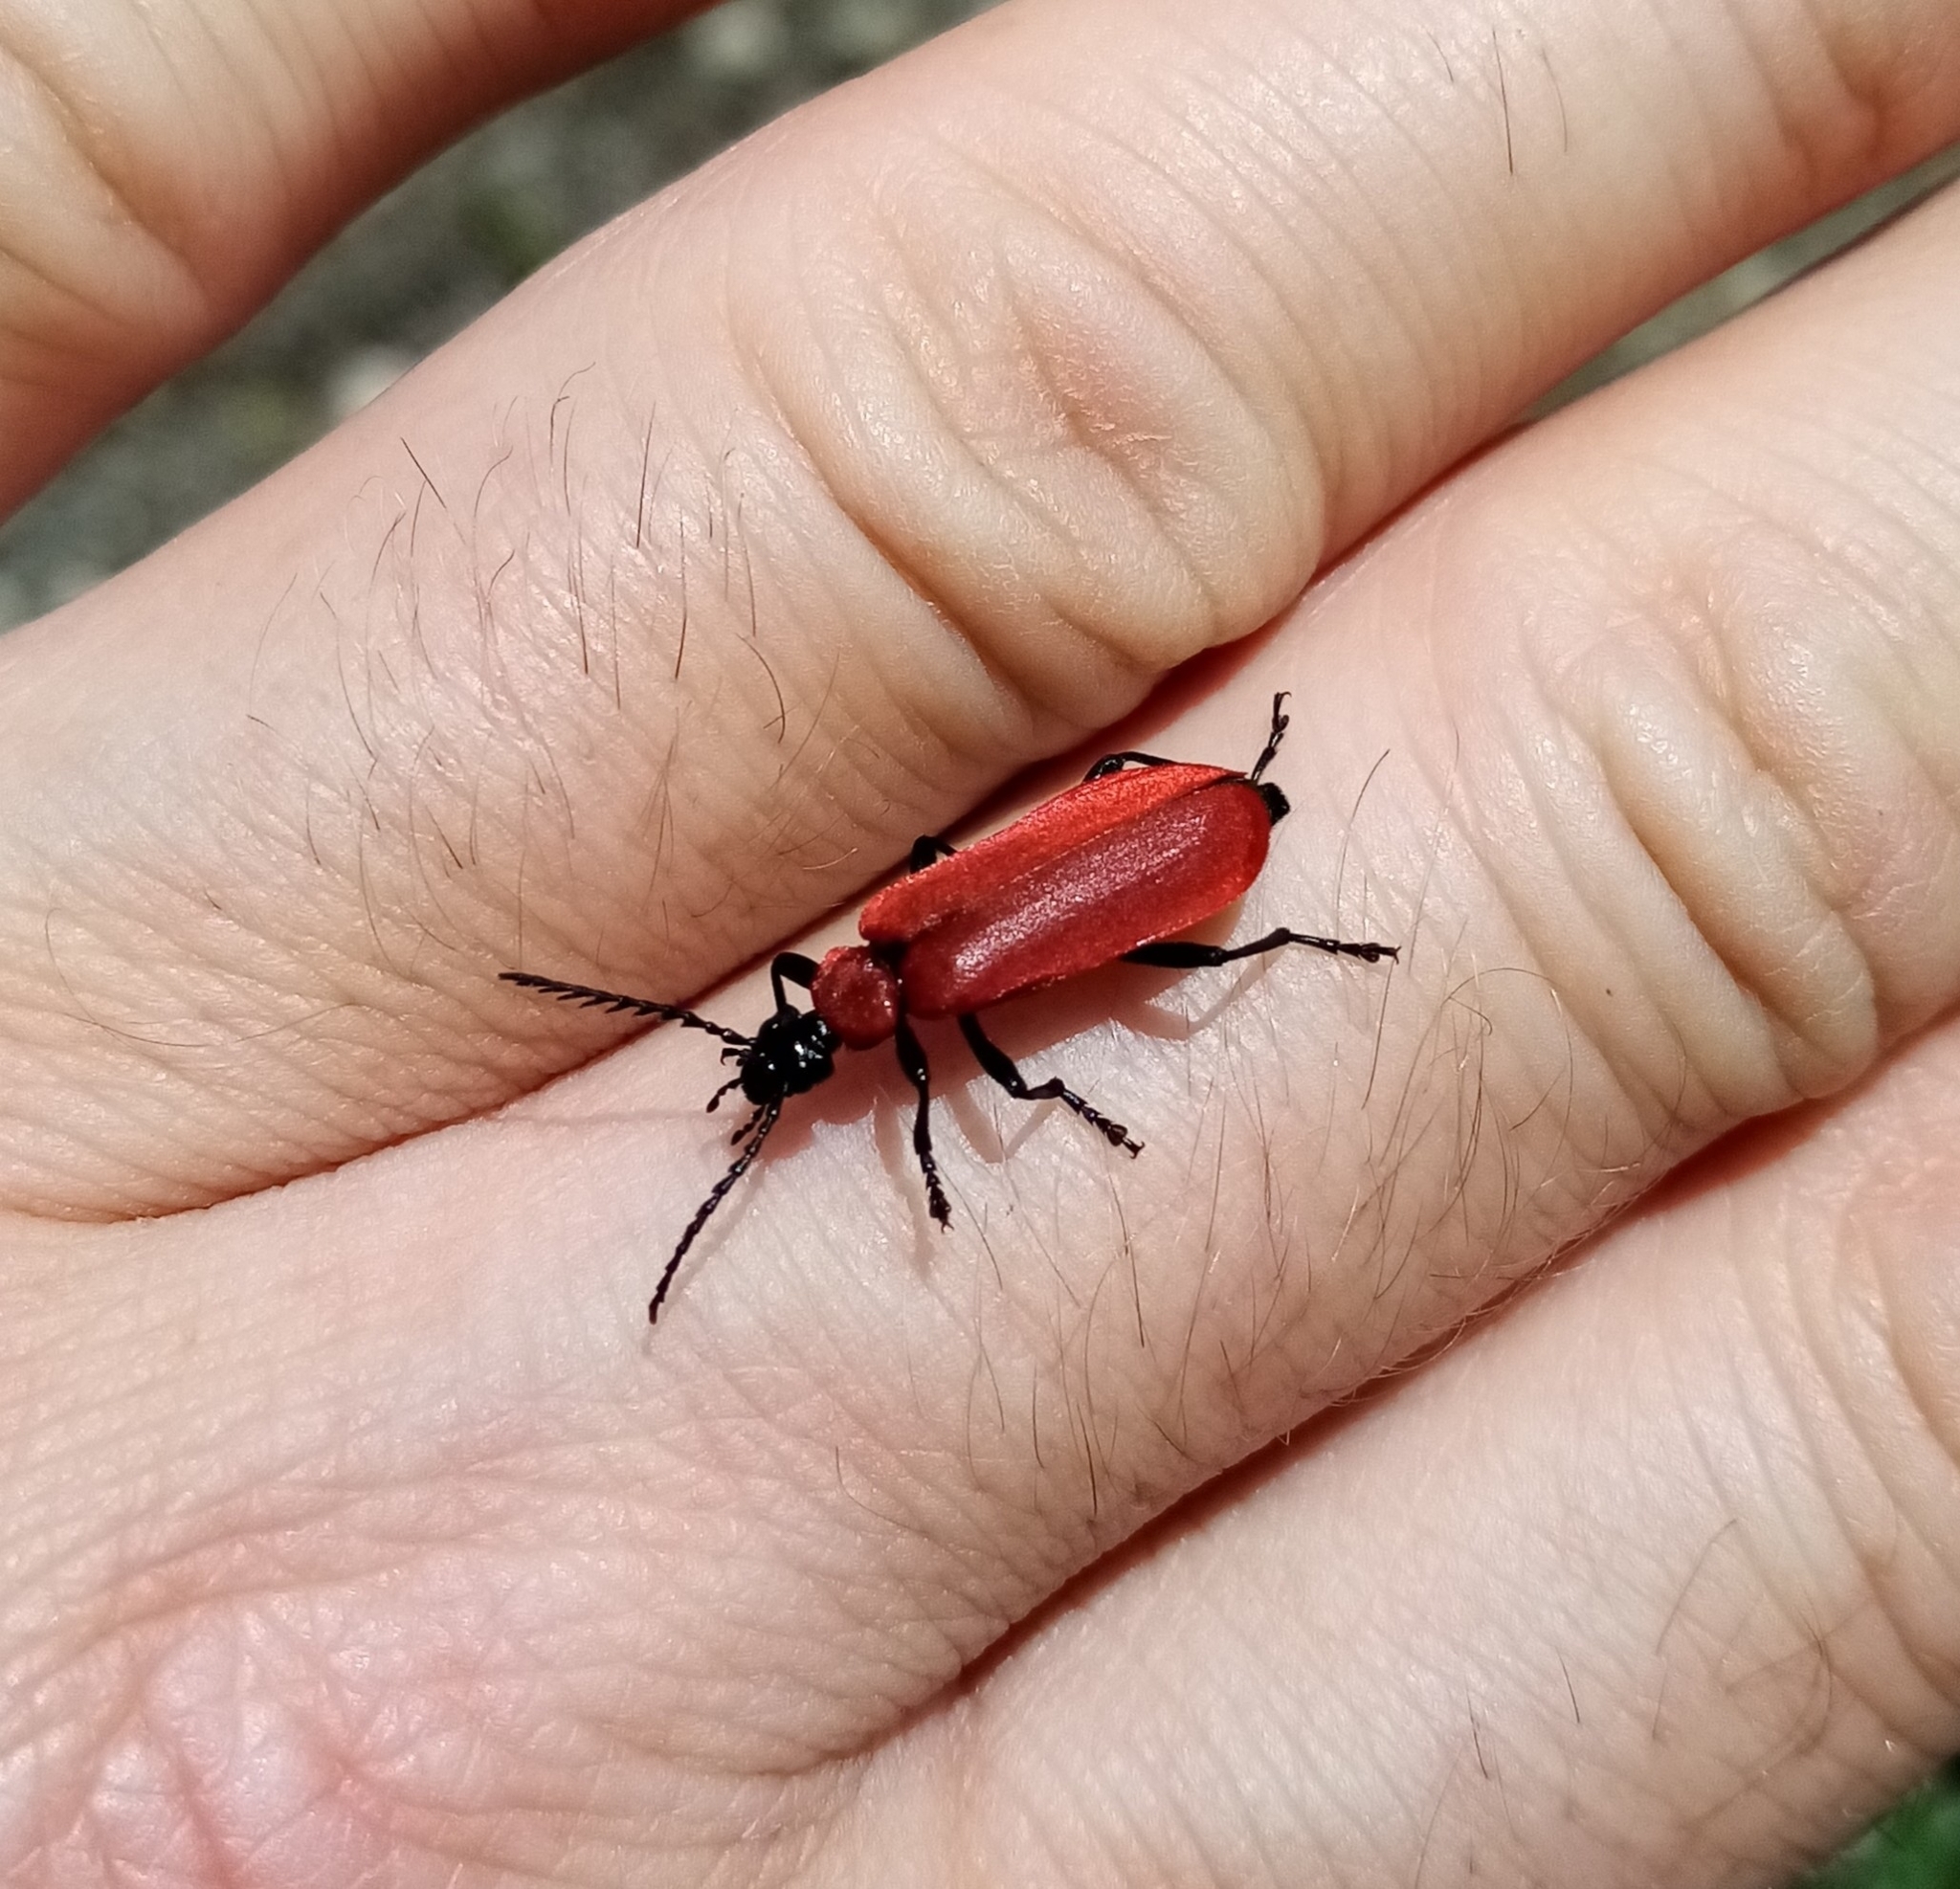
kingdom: Animalia
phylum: Arthropoda
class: Insecta
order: Coleoptera
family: Pyrochroidae
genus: Pyrochroa
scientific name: Pyrochroa coccinea
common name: Black-headed cardinal beetle
